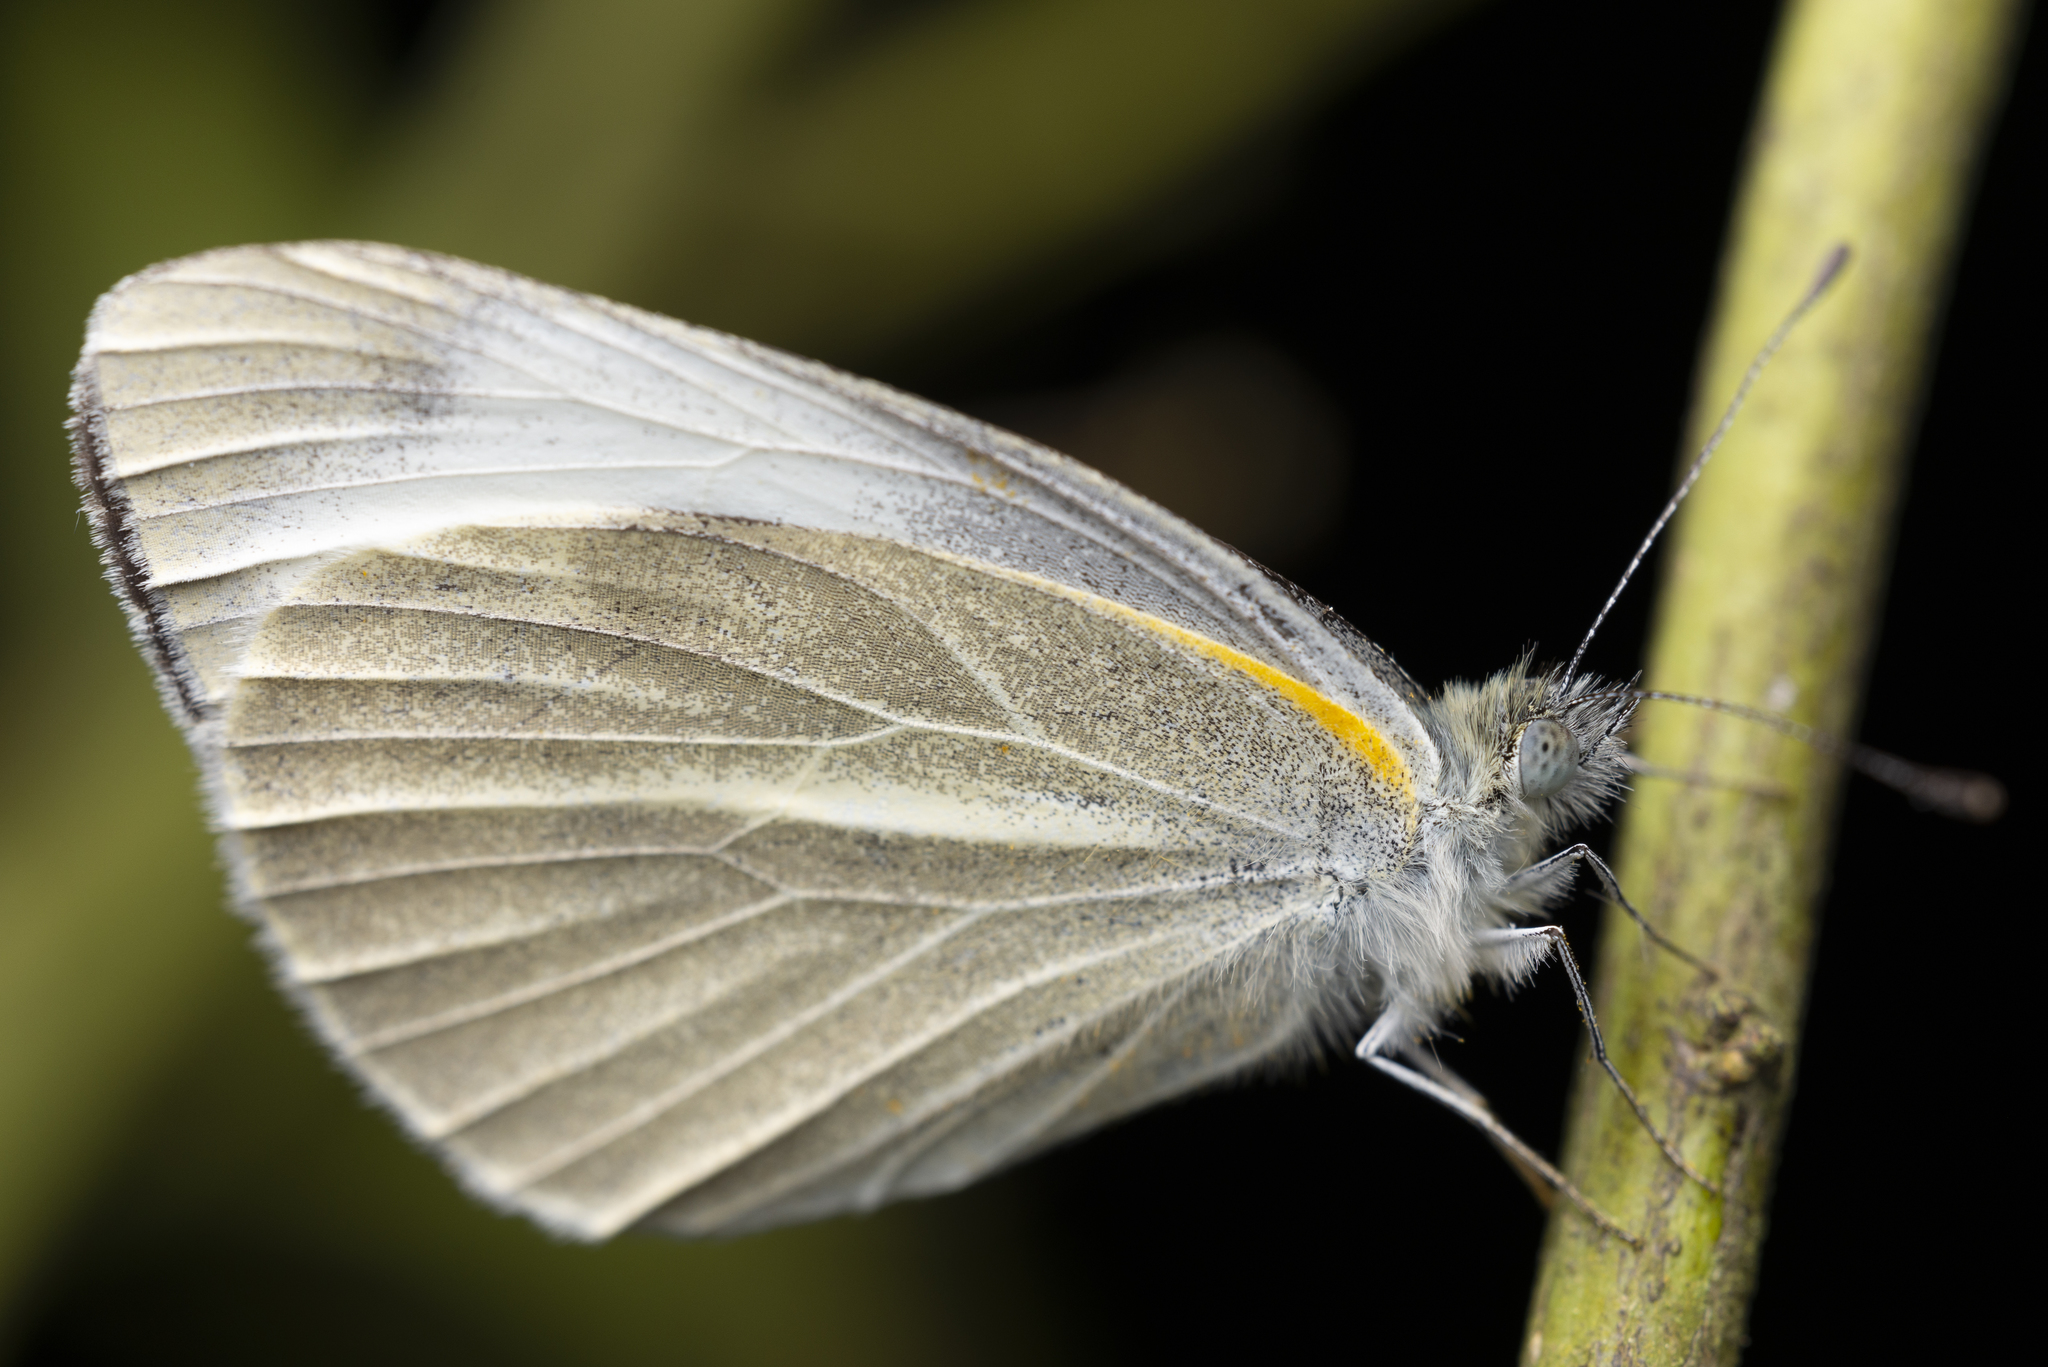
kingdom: Animalia
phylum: Arthropoda
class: Insecta
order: Lepidoptera
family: Pieridae
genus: Pieris
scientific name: Pieris canidia
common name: Indian cabbage white
